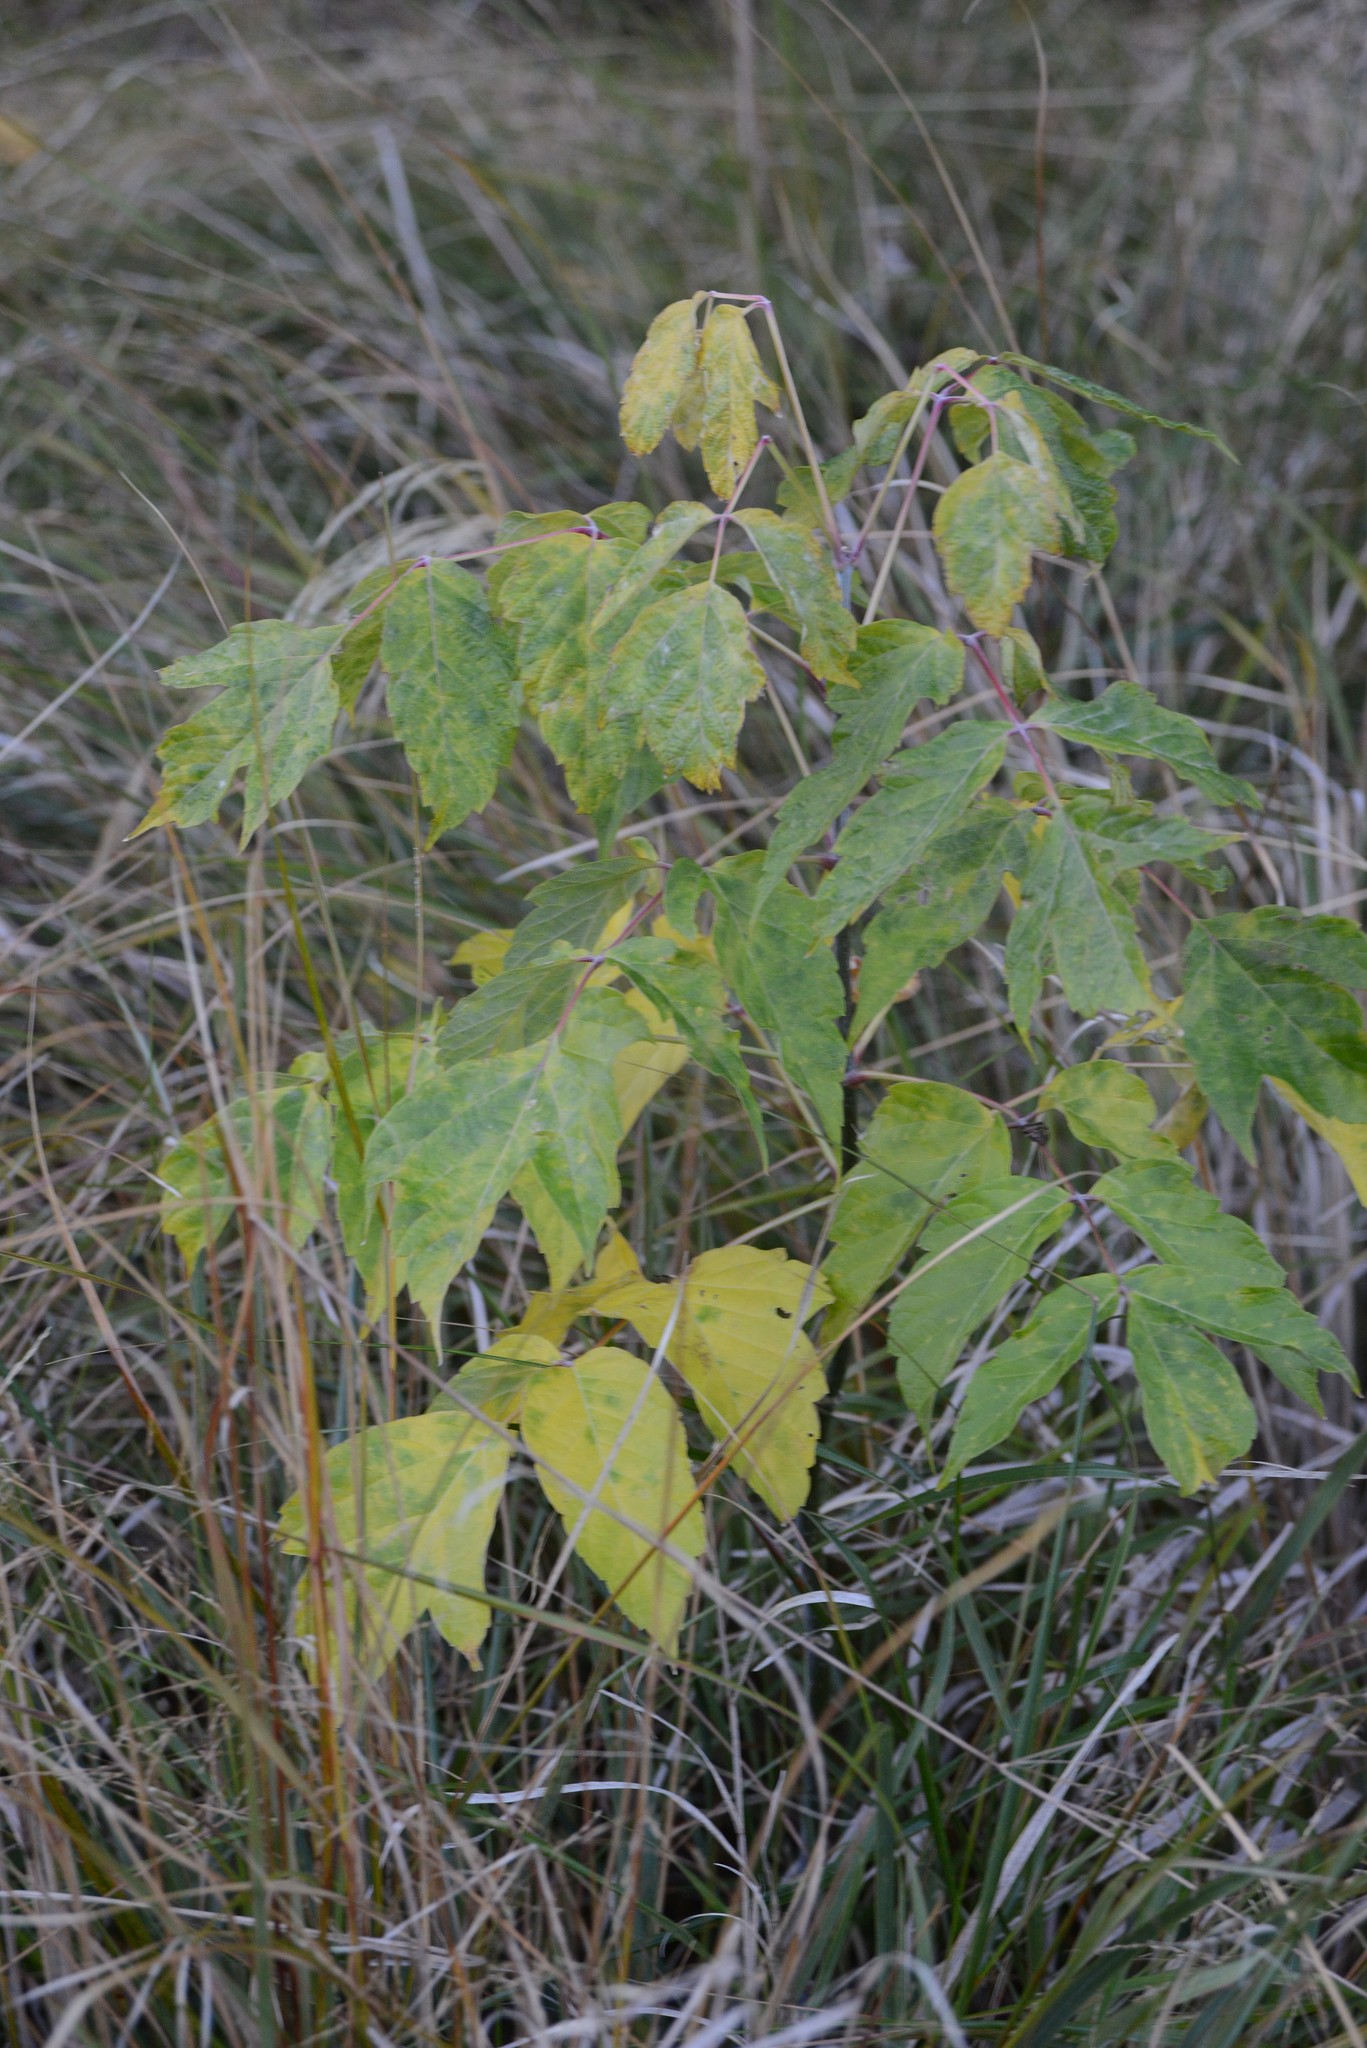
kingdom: Plantae
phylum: Tracheophyta
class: Magnoliopsida
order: Sapindales
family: Sapindaceae
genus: Acer
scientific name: Acer negundo
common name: Ashleaf maple
